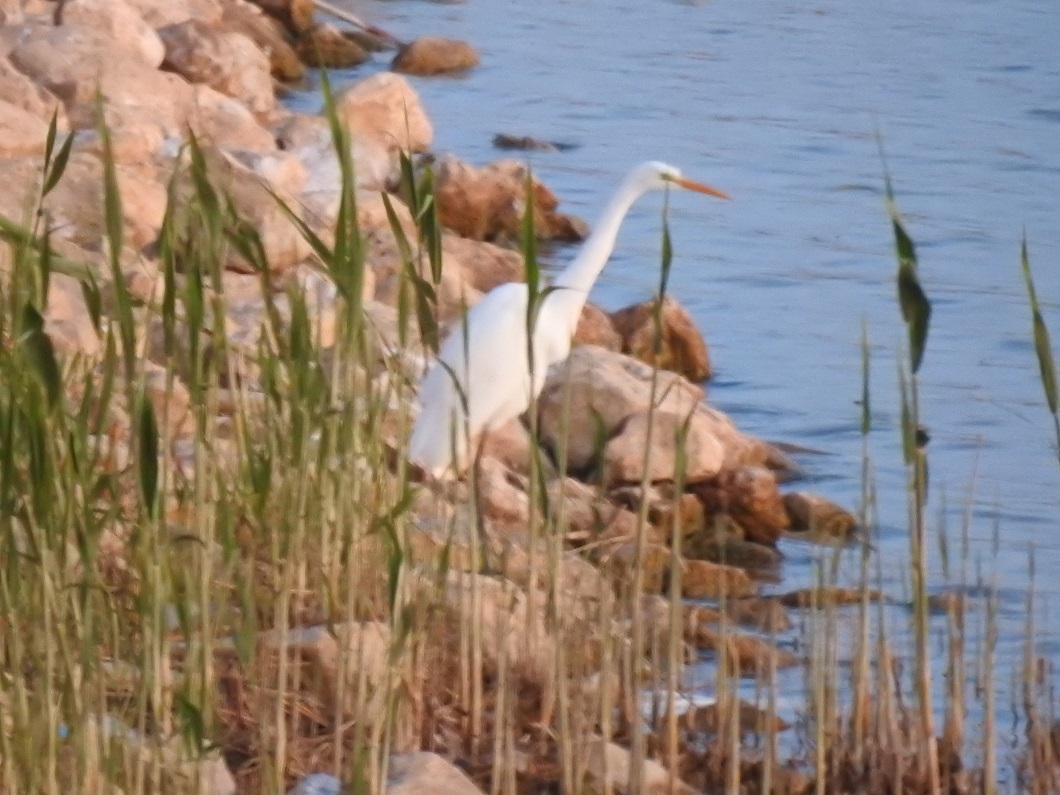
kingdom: Animalia
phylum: Chordata
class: Aves
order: Pelecaniformes
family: Ardeidae
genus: Ardea
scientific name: Ardea alba
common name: Great egret
